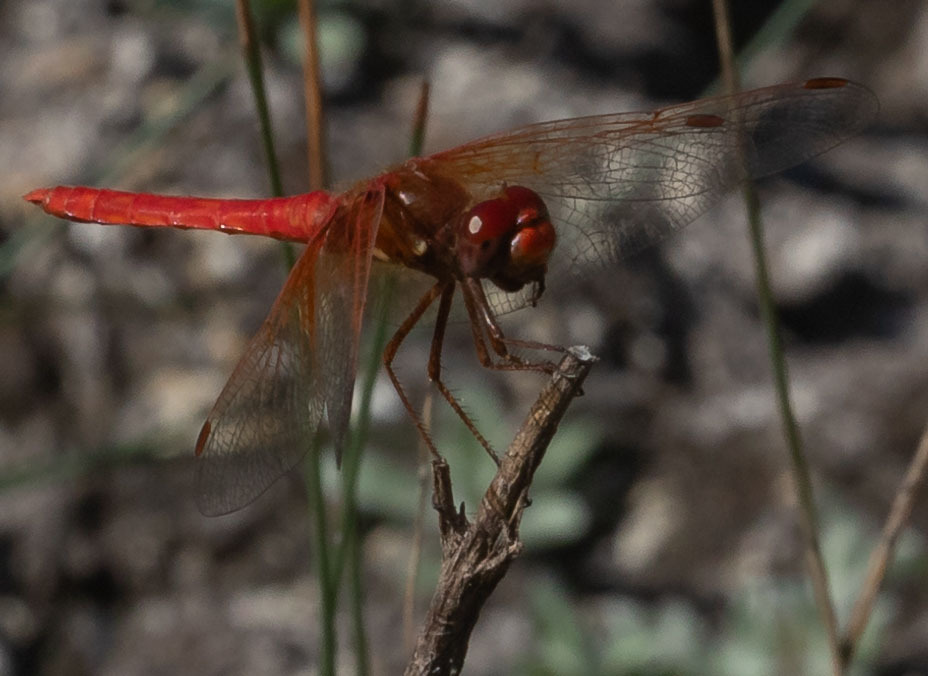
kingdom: Animalia
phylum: Arthropoda
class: Insecta
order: Odonata
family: Libellulidae
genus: Sympetrum
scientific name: Sympetrum illotum
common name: Cardinal meadowhawk
